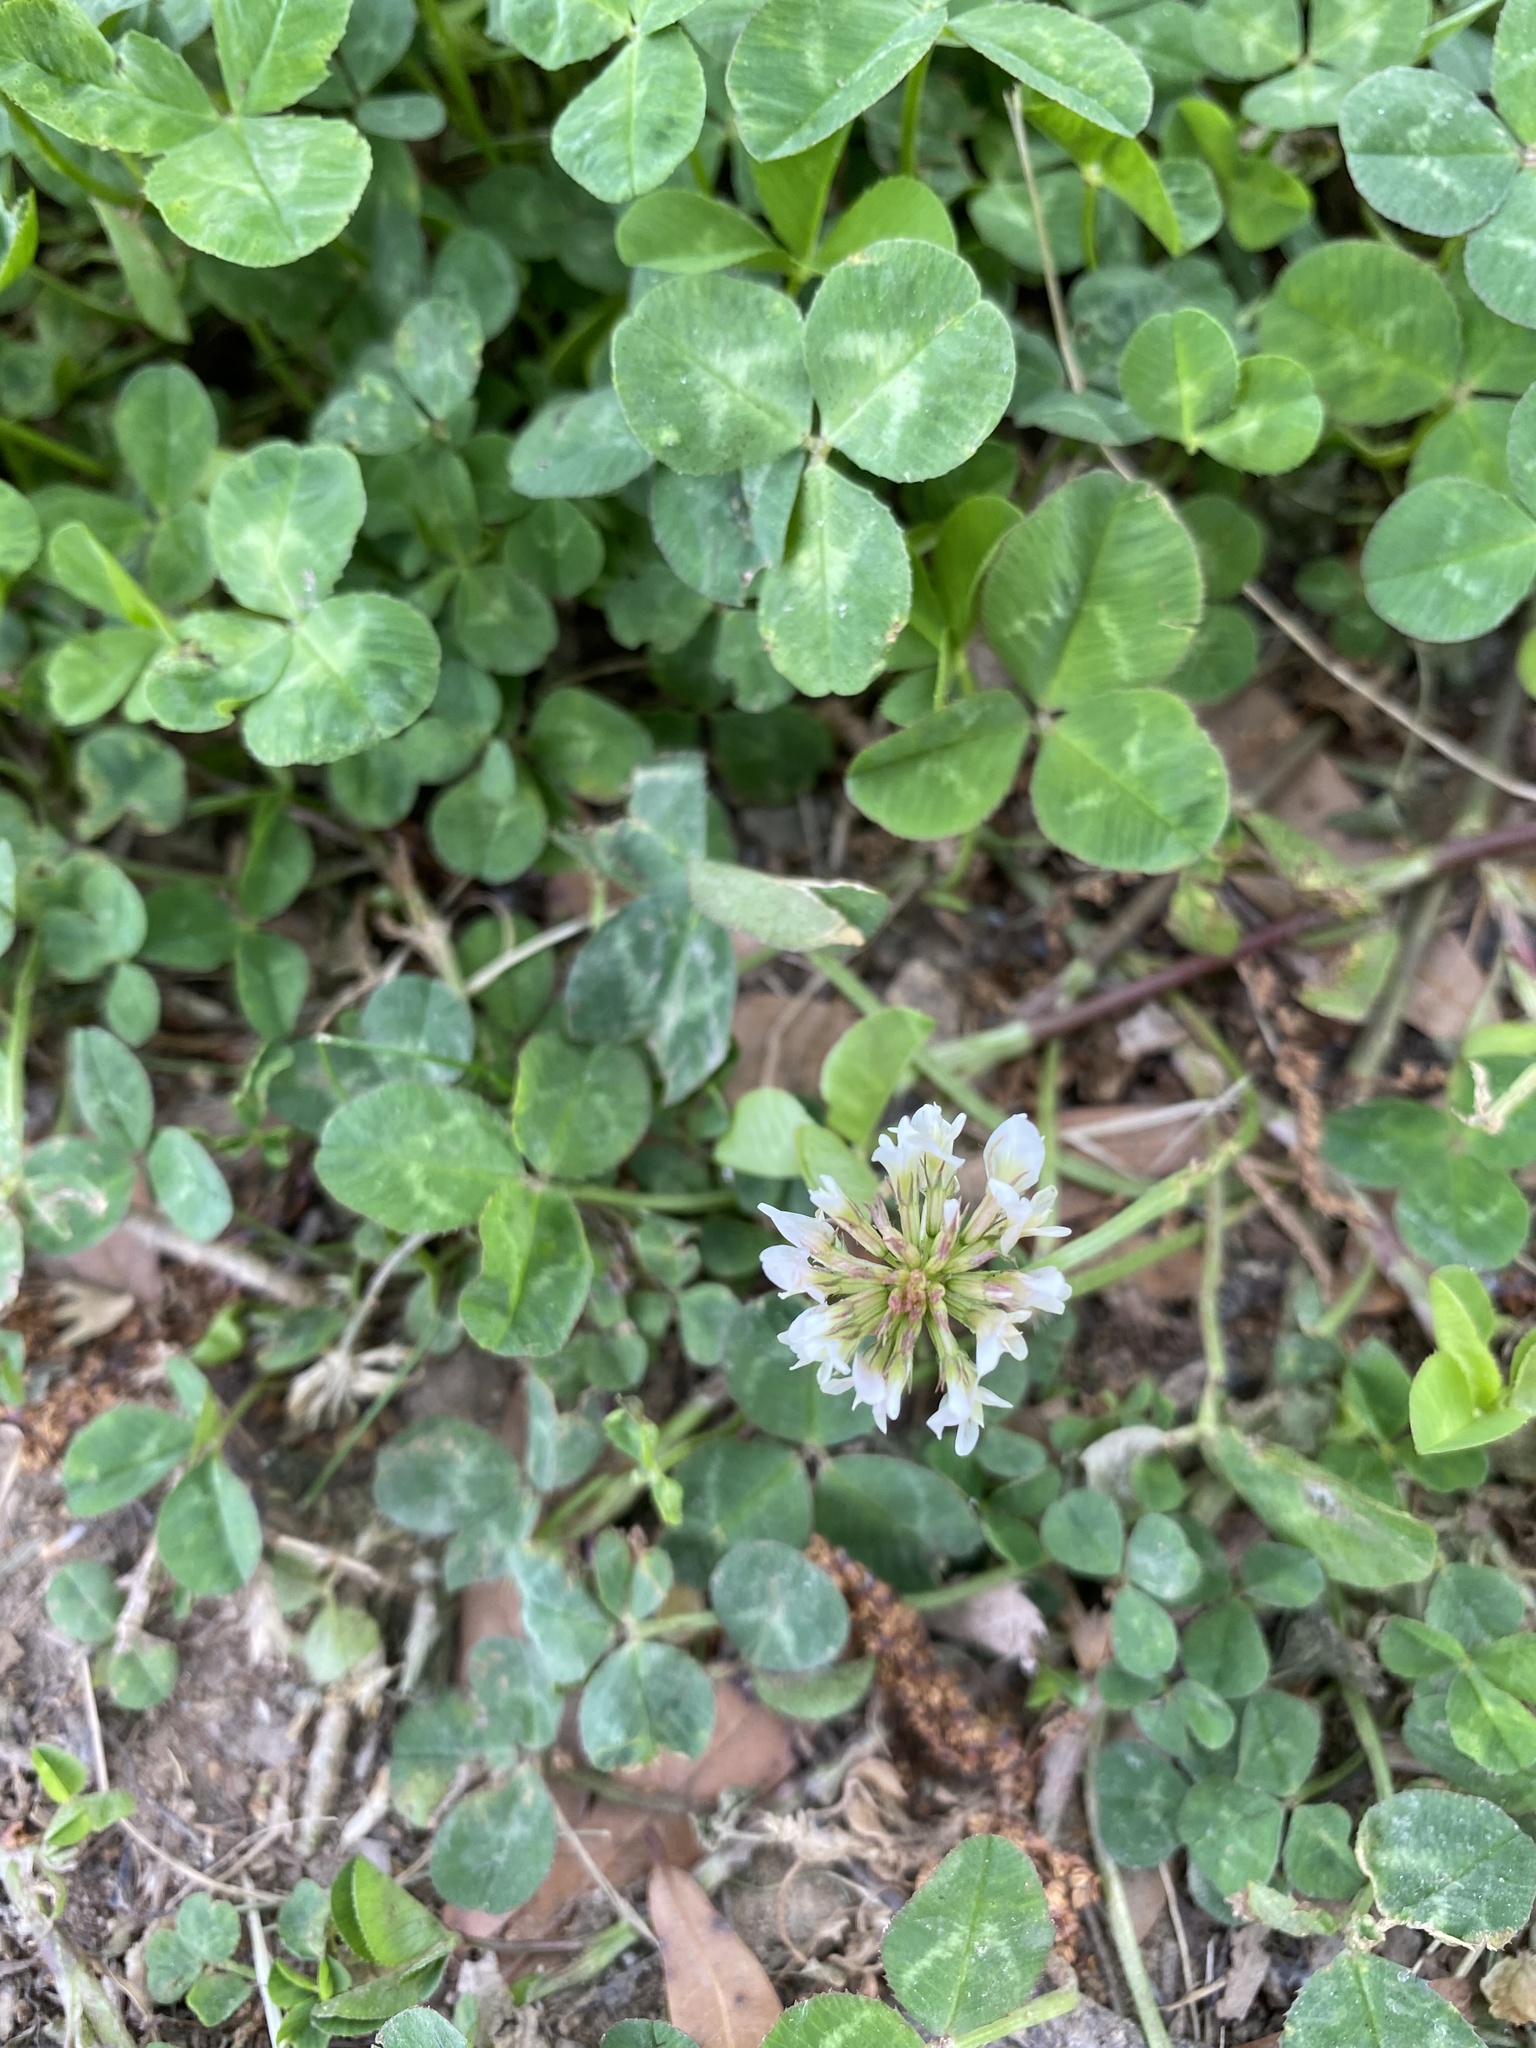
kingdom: Plantae
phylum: Tracheophyta
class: Magnoliopsida
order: Fabales
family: Fabaceae
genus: Trifolium
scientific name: Trifolium repens
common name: White clover
